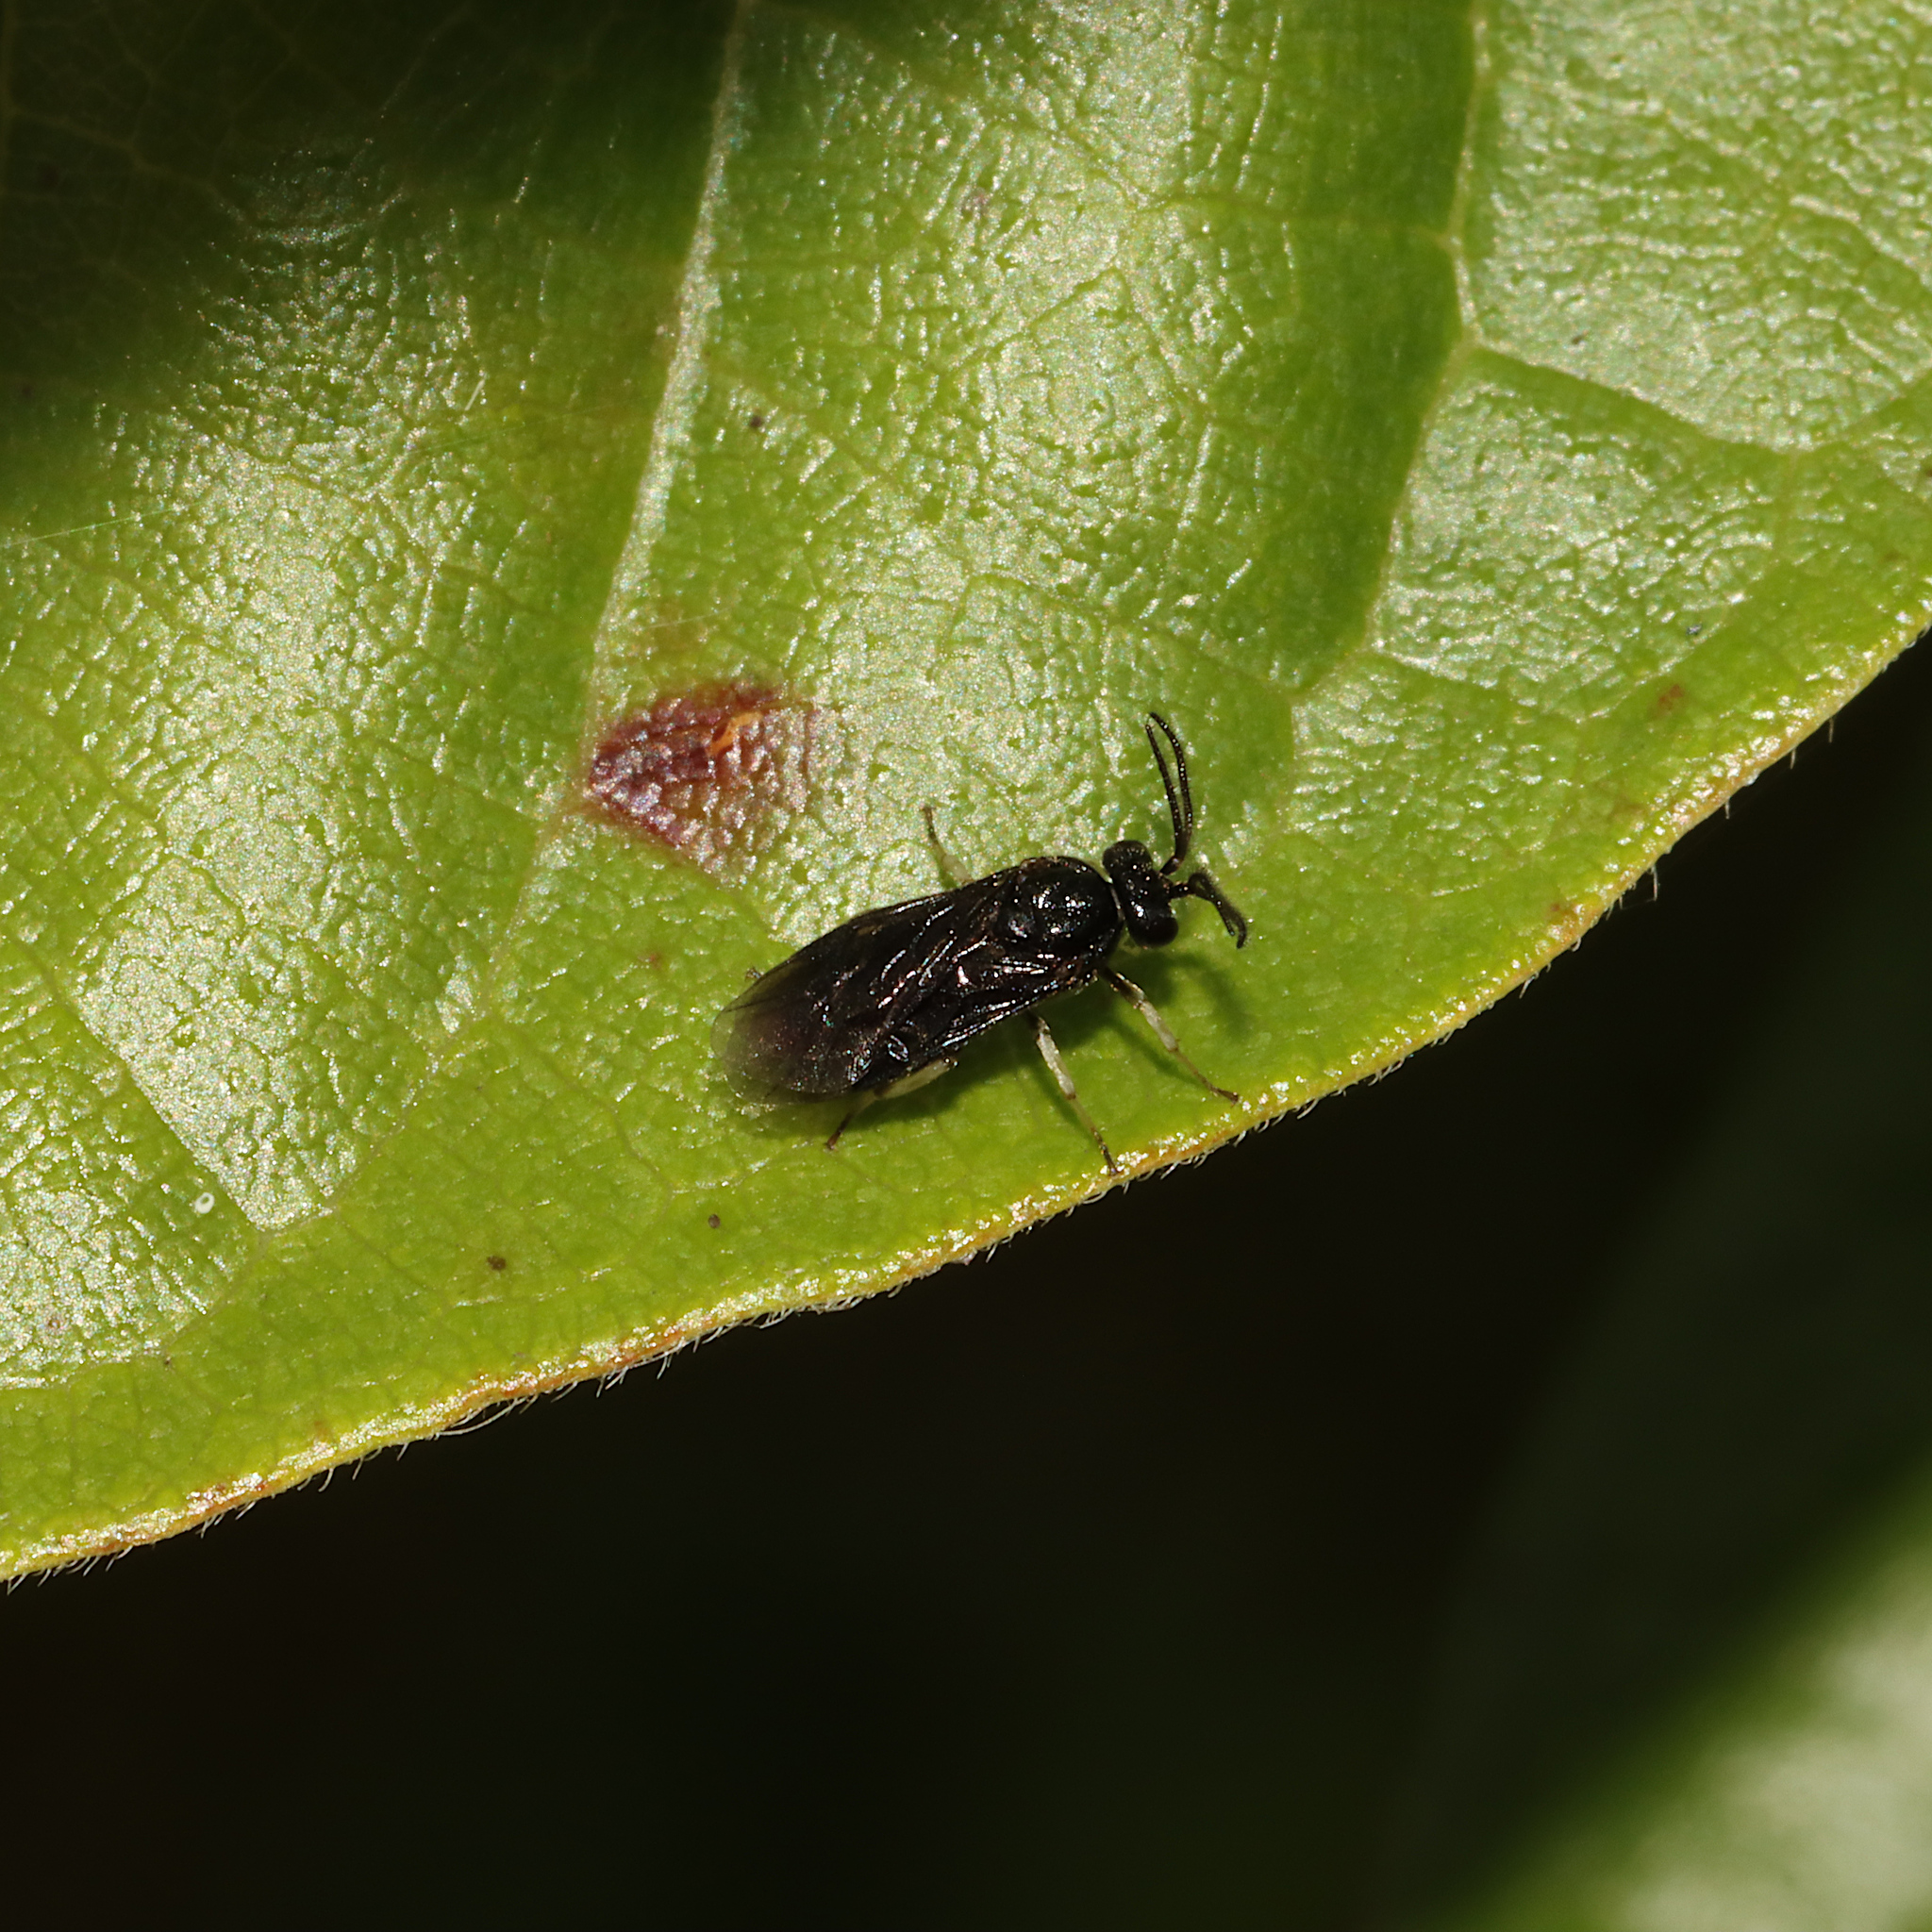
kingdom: Animalia
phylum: Arthropoda
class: Insecta
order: Hymenoptera
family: Argidae
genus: Sphacophilus
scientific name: Sphacophilus cellularis
